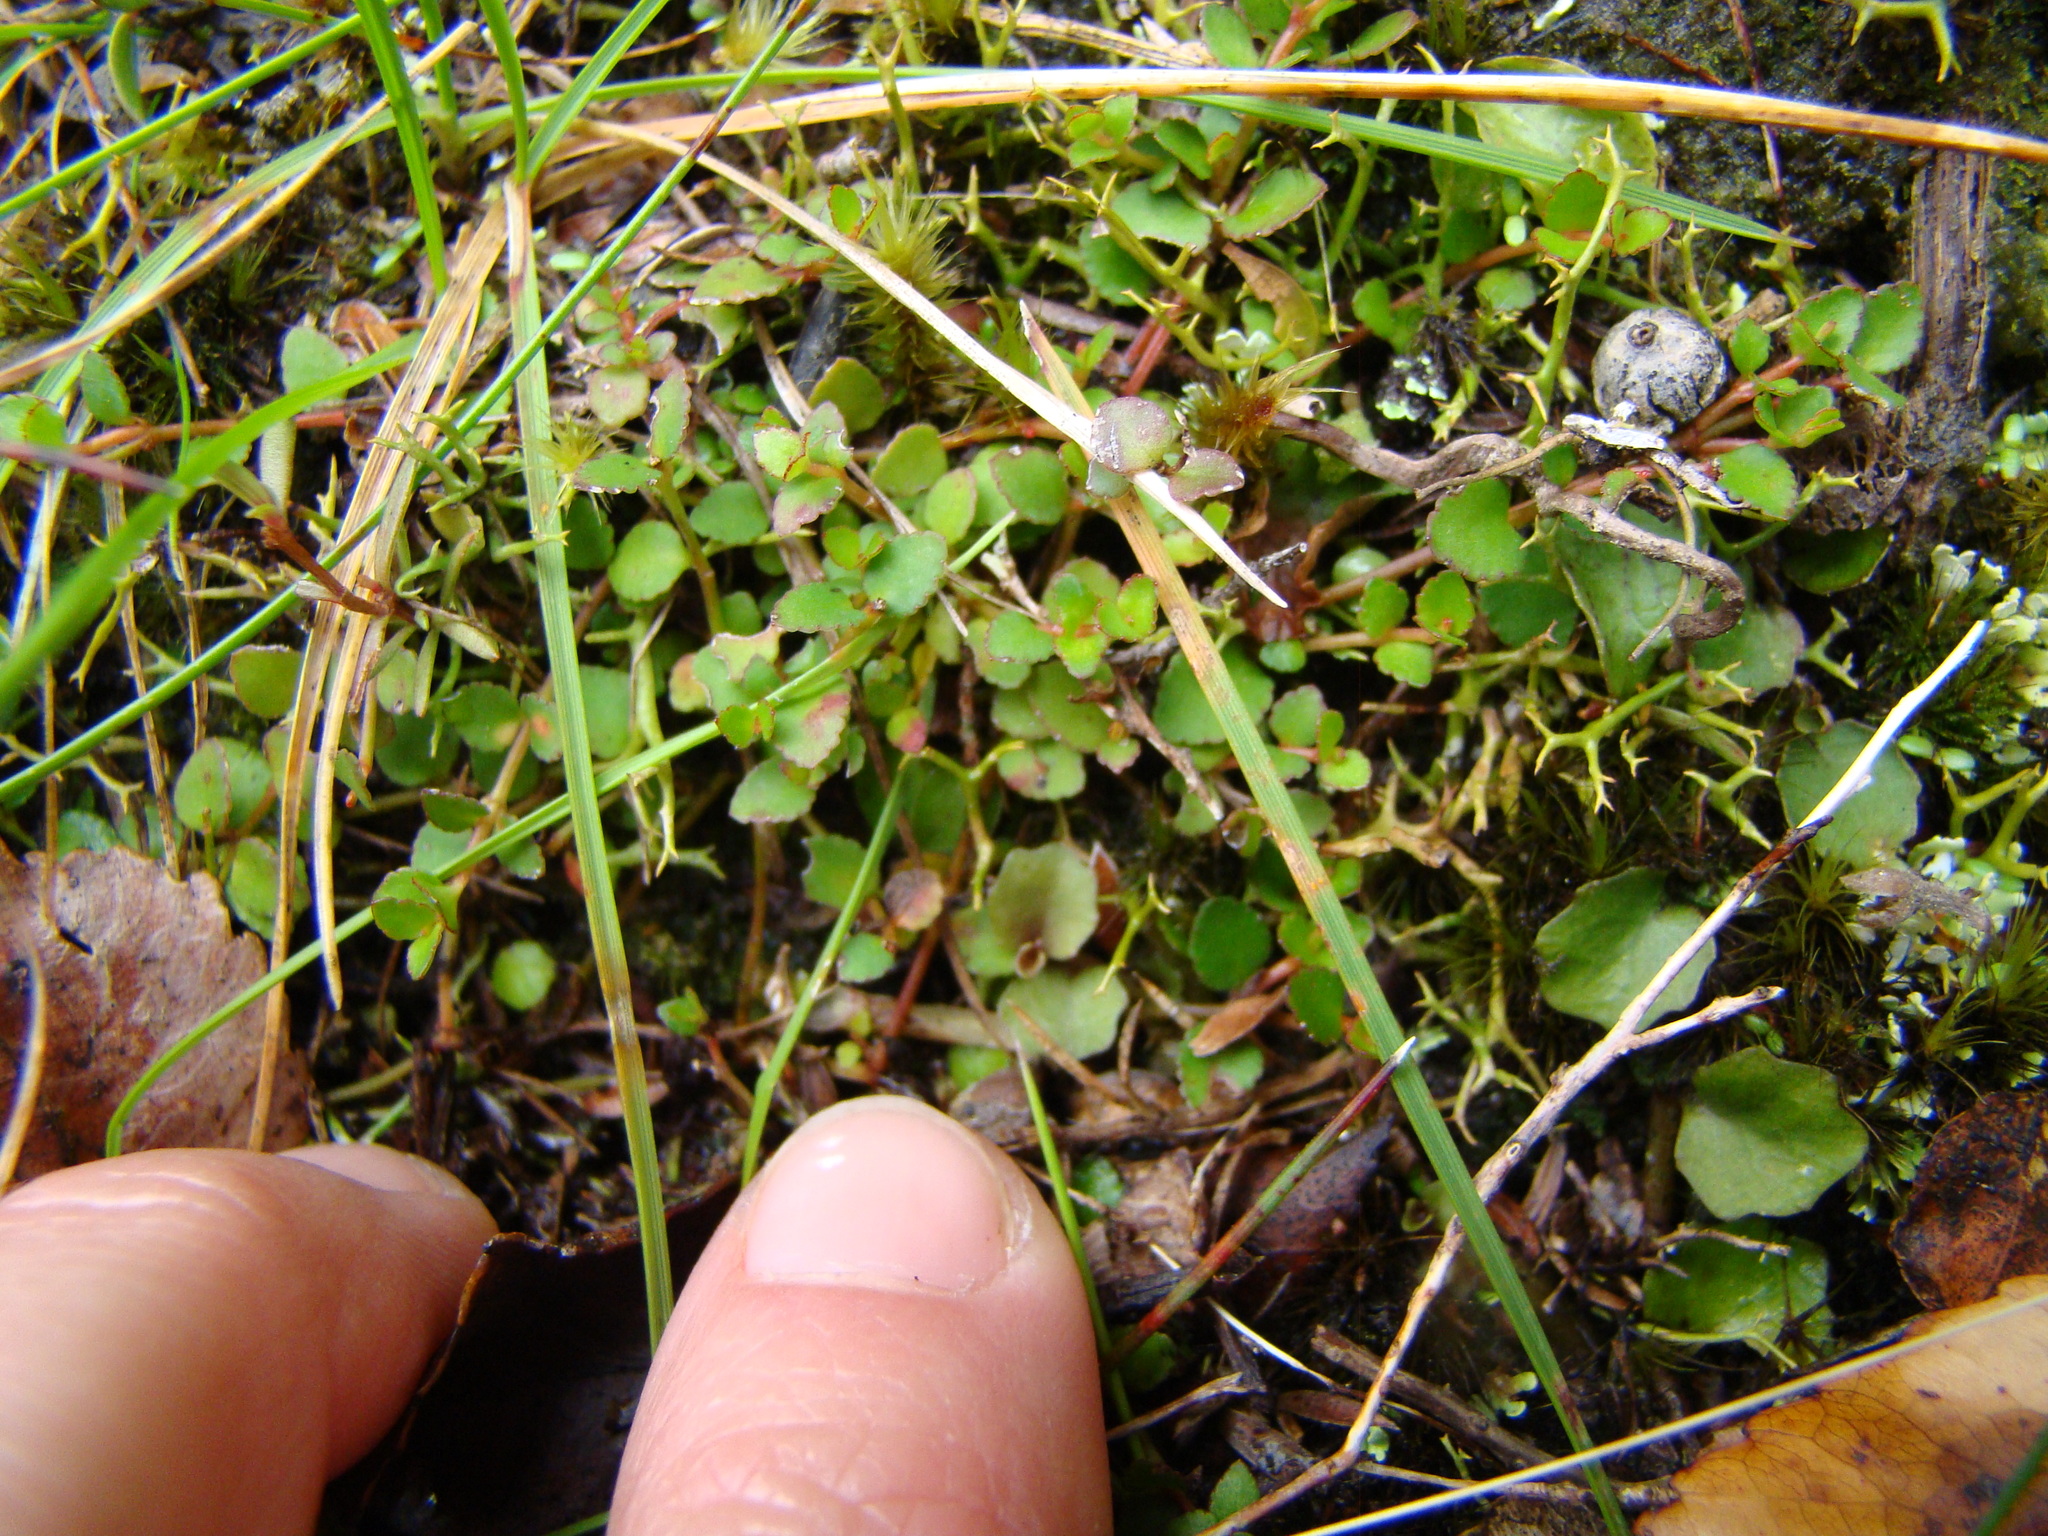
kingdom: Plantae
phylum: Tracheophyta
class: Magnoliopsida
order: Saxifragales
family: Haloragaceae
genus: Gonocarpus
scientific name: Gonocarpus micranthus
